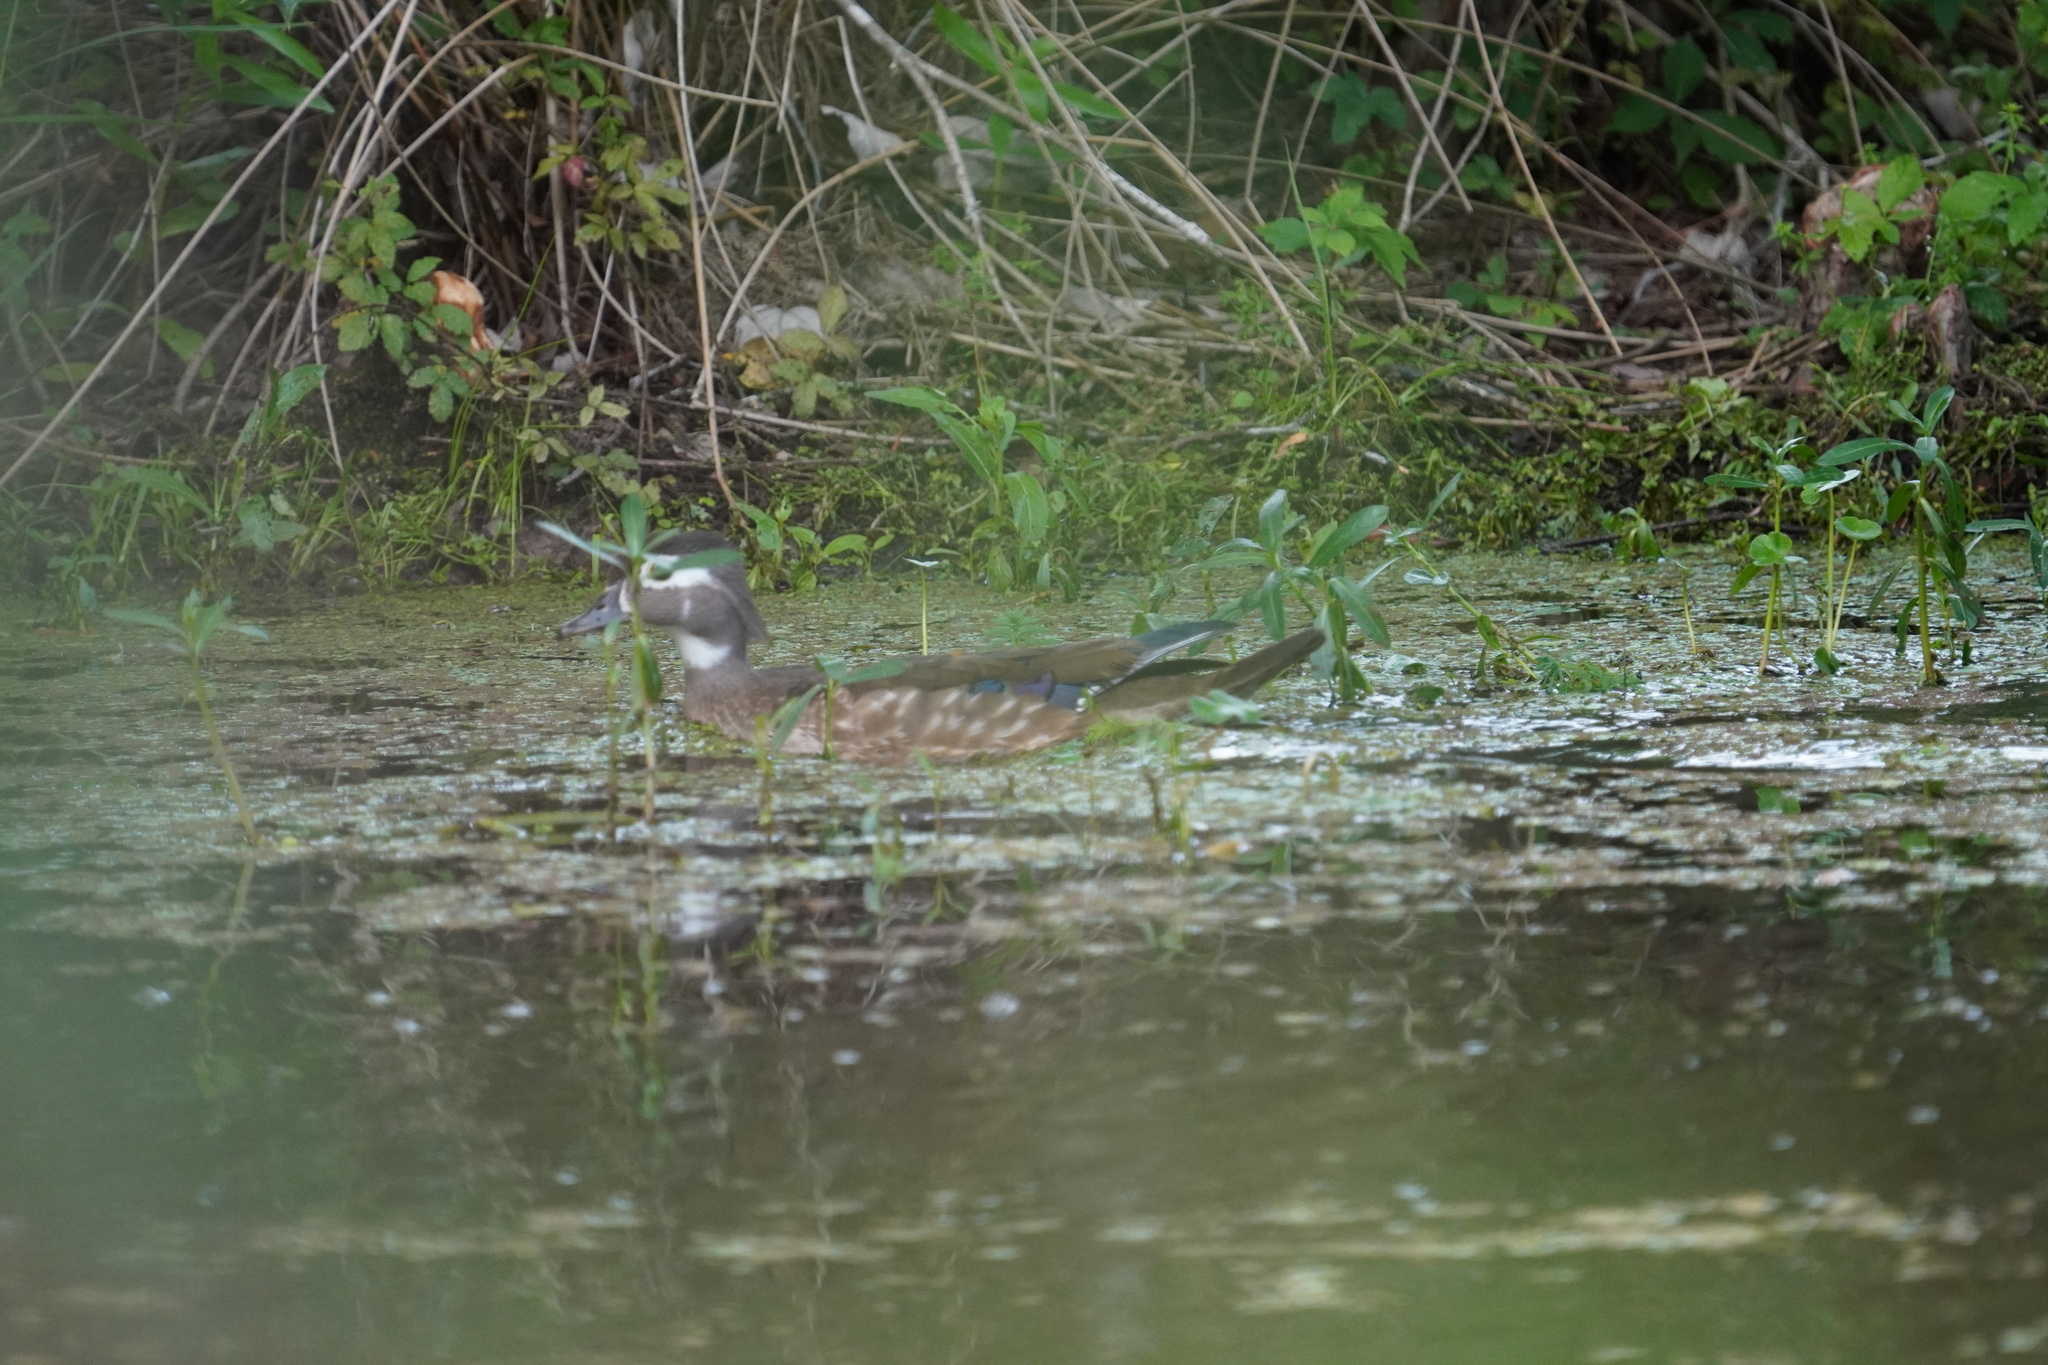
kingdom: Animalia
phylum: Chordata
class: Aves
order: Anseriformes
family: Anatidae
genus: Aix
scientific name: Aix sponsa
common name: Wood duck
